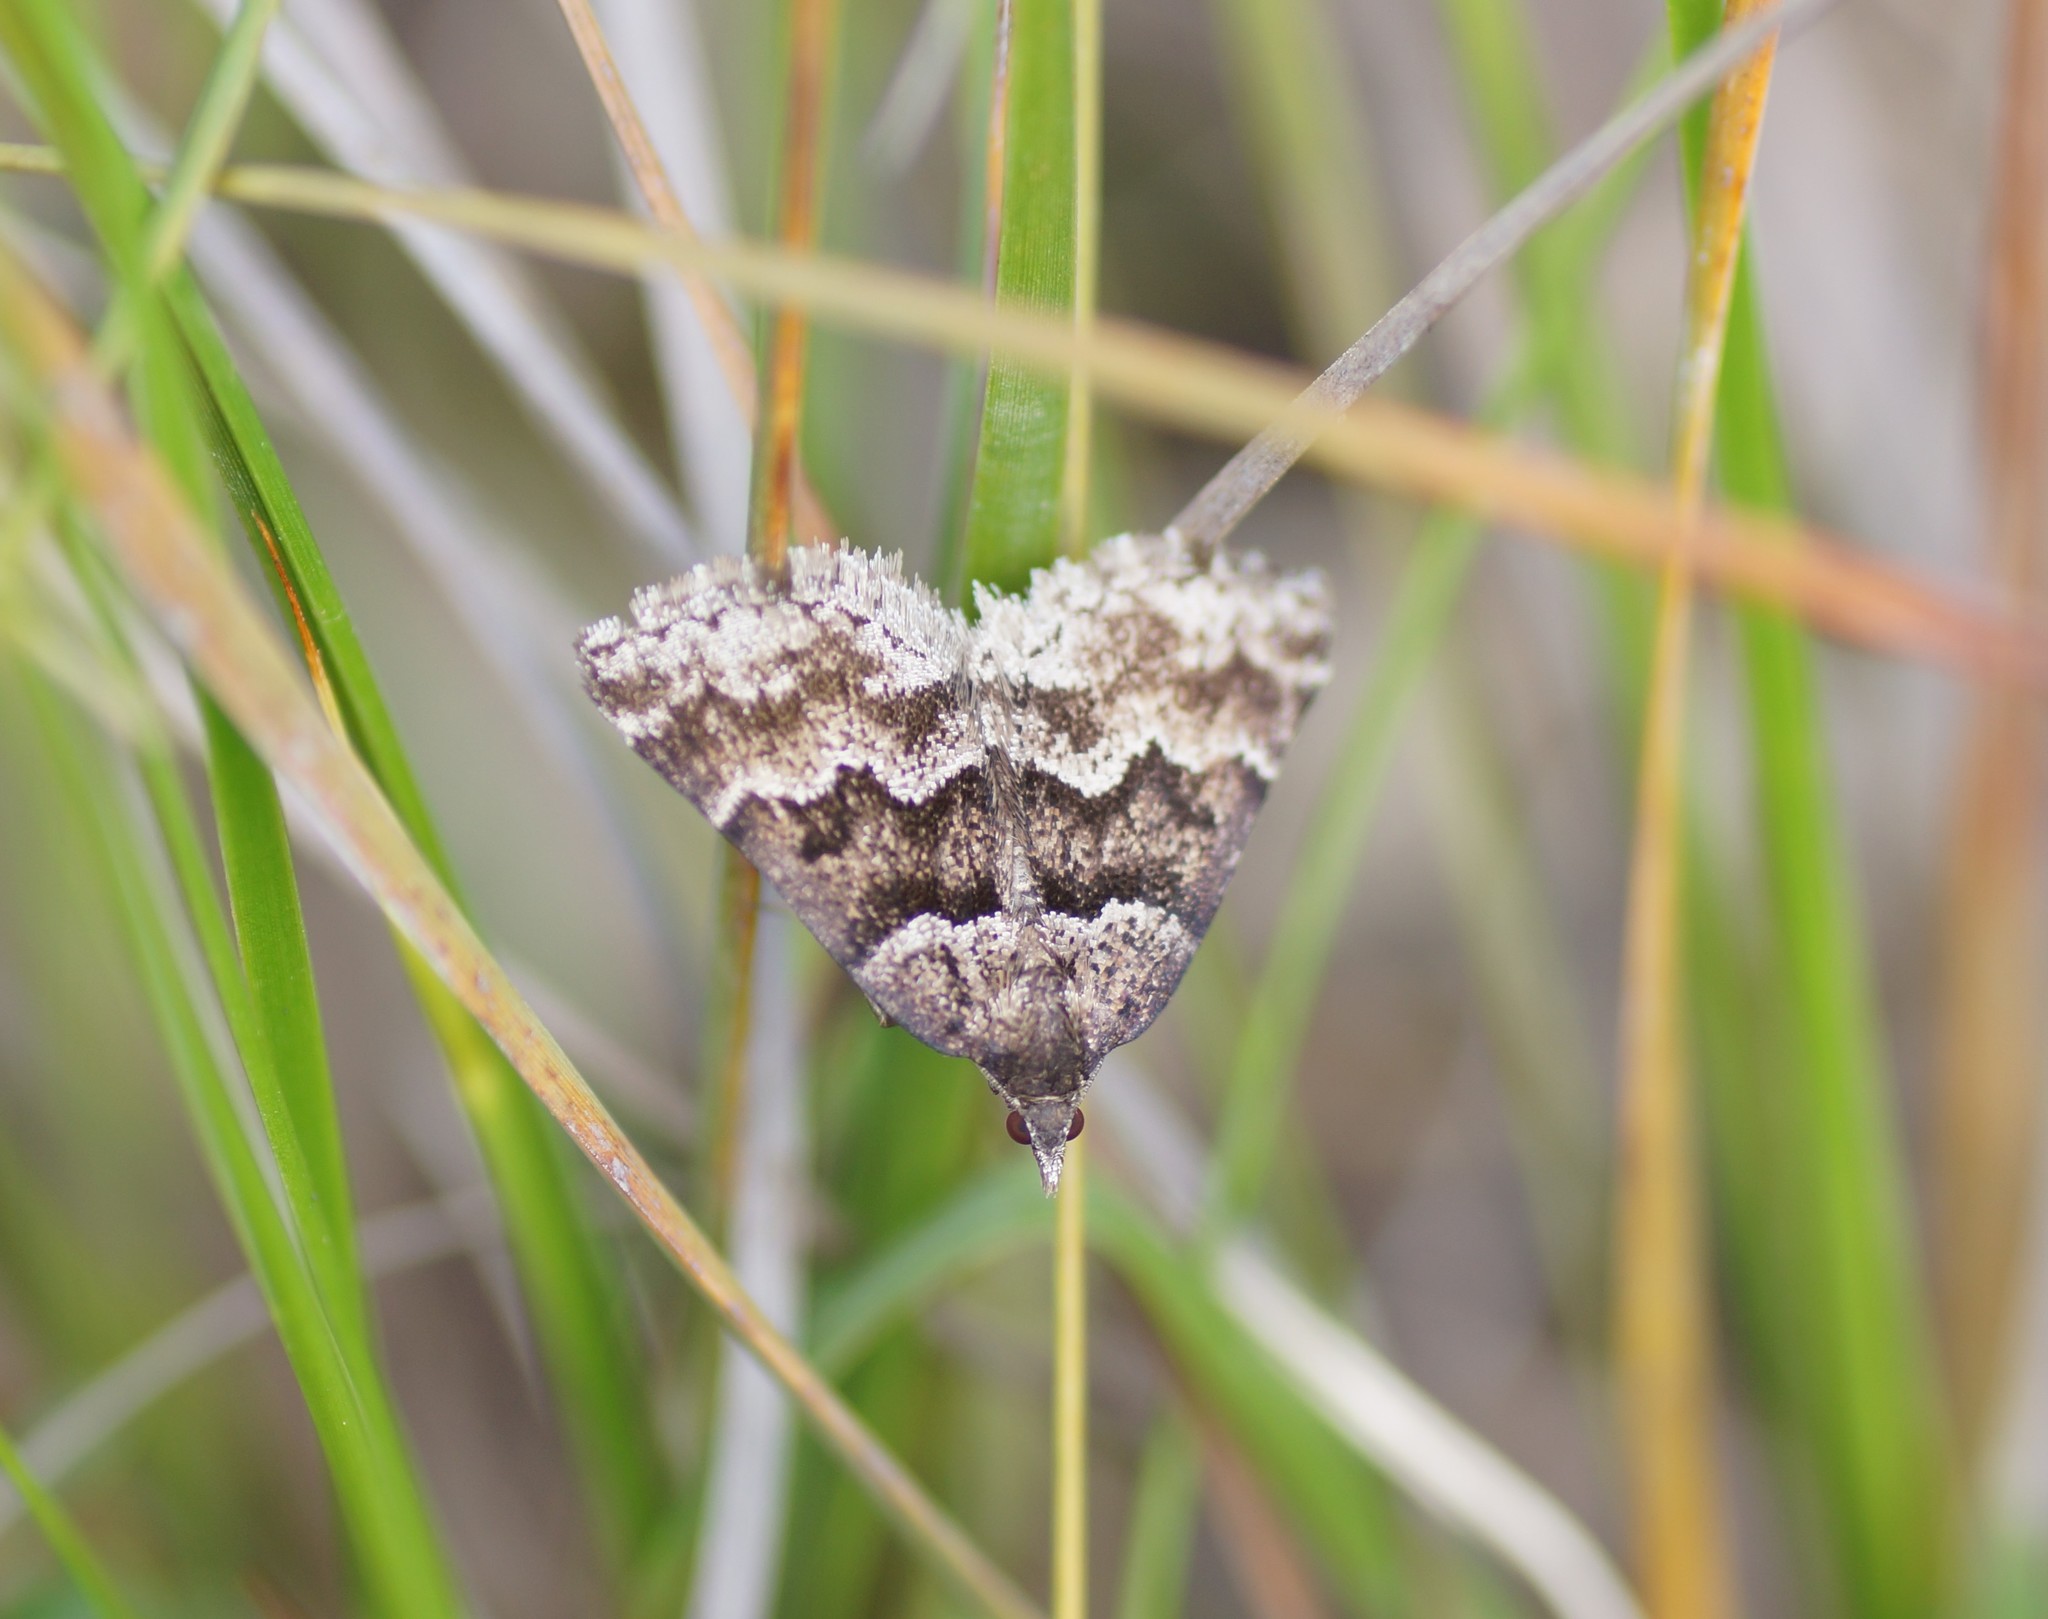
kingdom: Animalia
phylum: Arthropoda
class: Insecta
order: Lepidoptera
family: Geometridae
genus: Dichromodes
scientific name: Dichromodes ainaria
